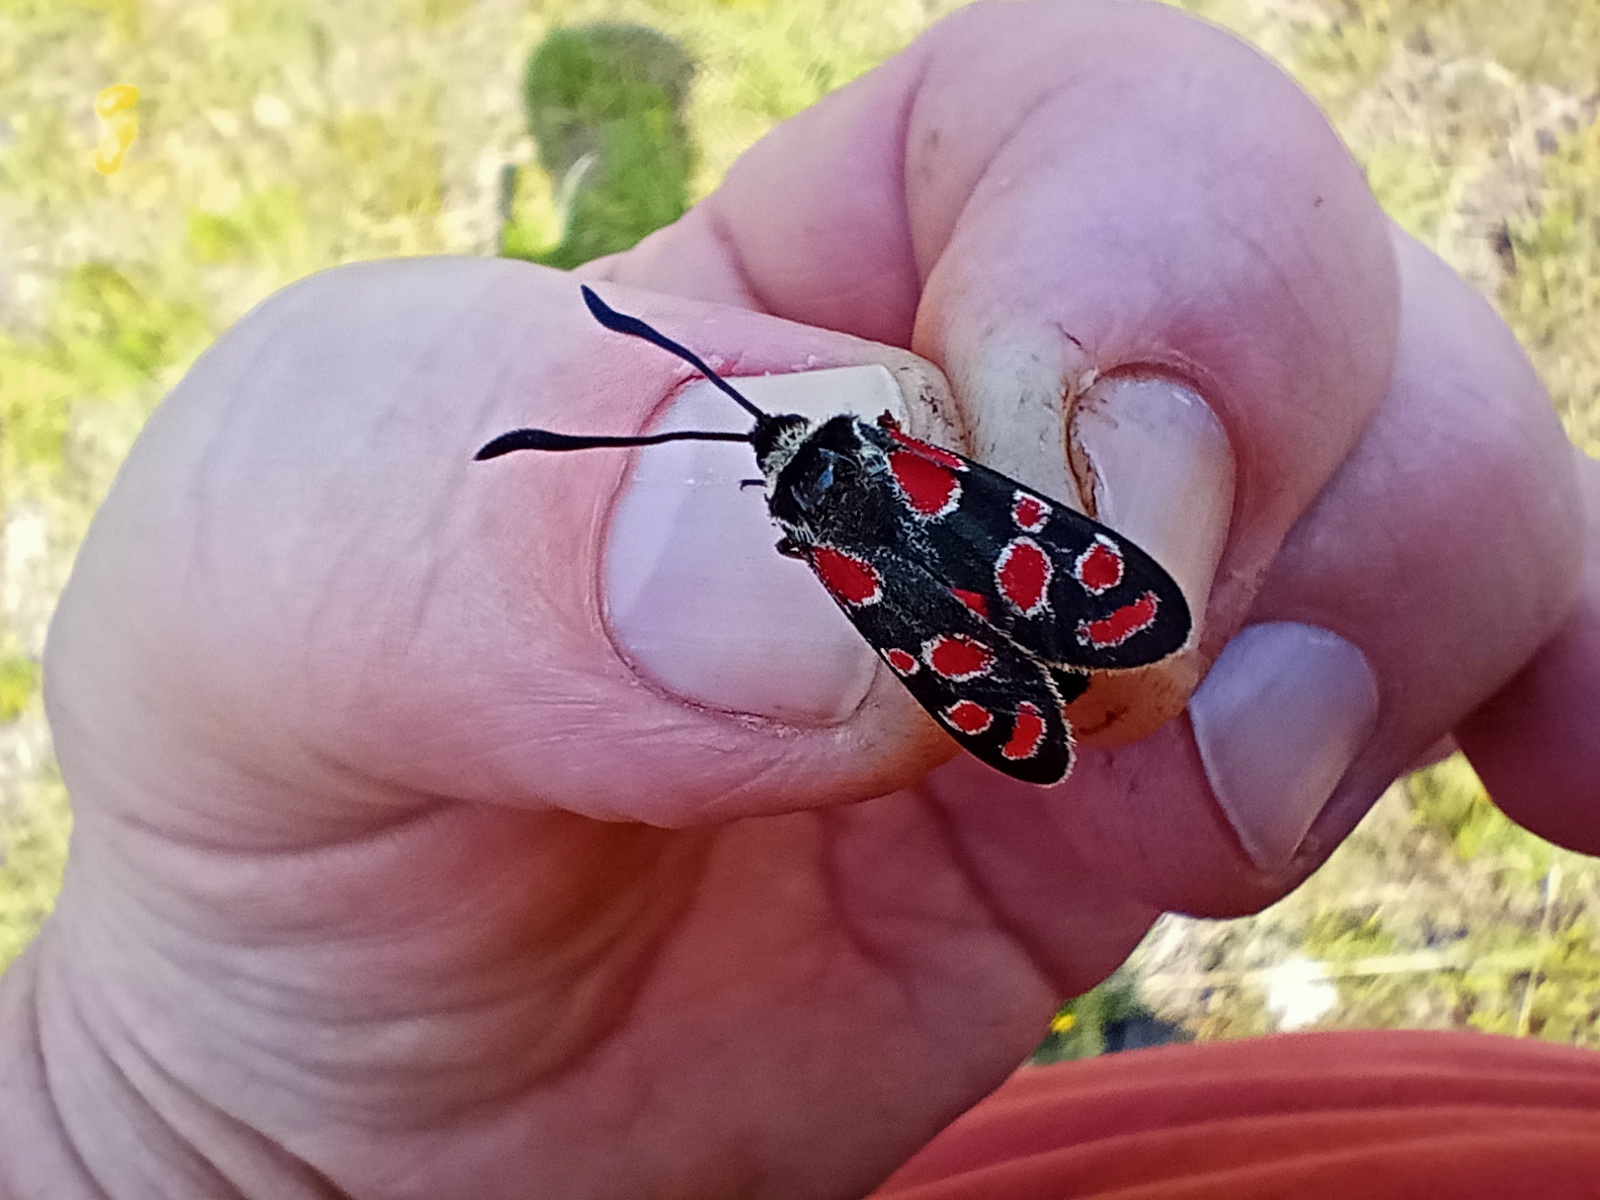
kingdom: Animalia
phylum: Arthropoda
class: Insecta
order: Lepidoptera
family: Zygaenidae
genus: Zygaena
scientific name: Zygaena carniolica
